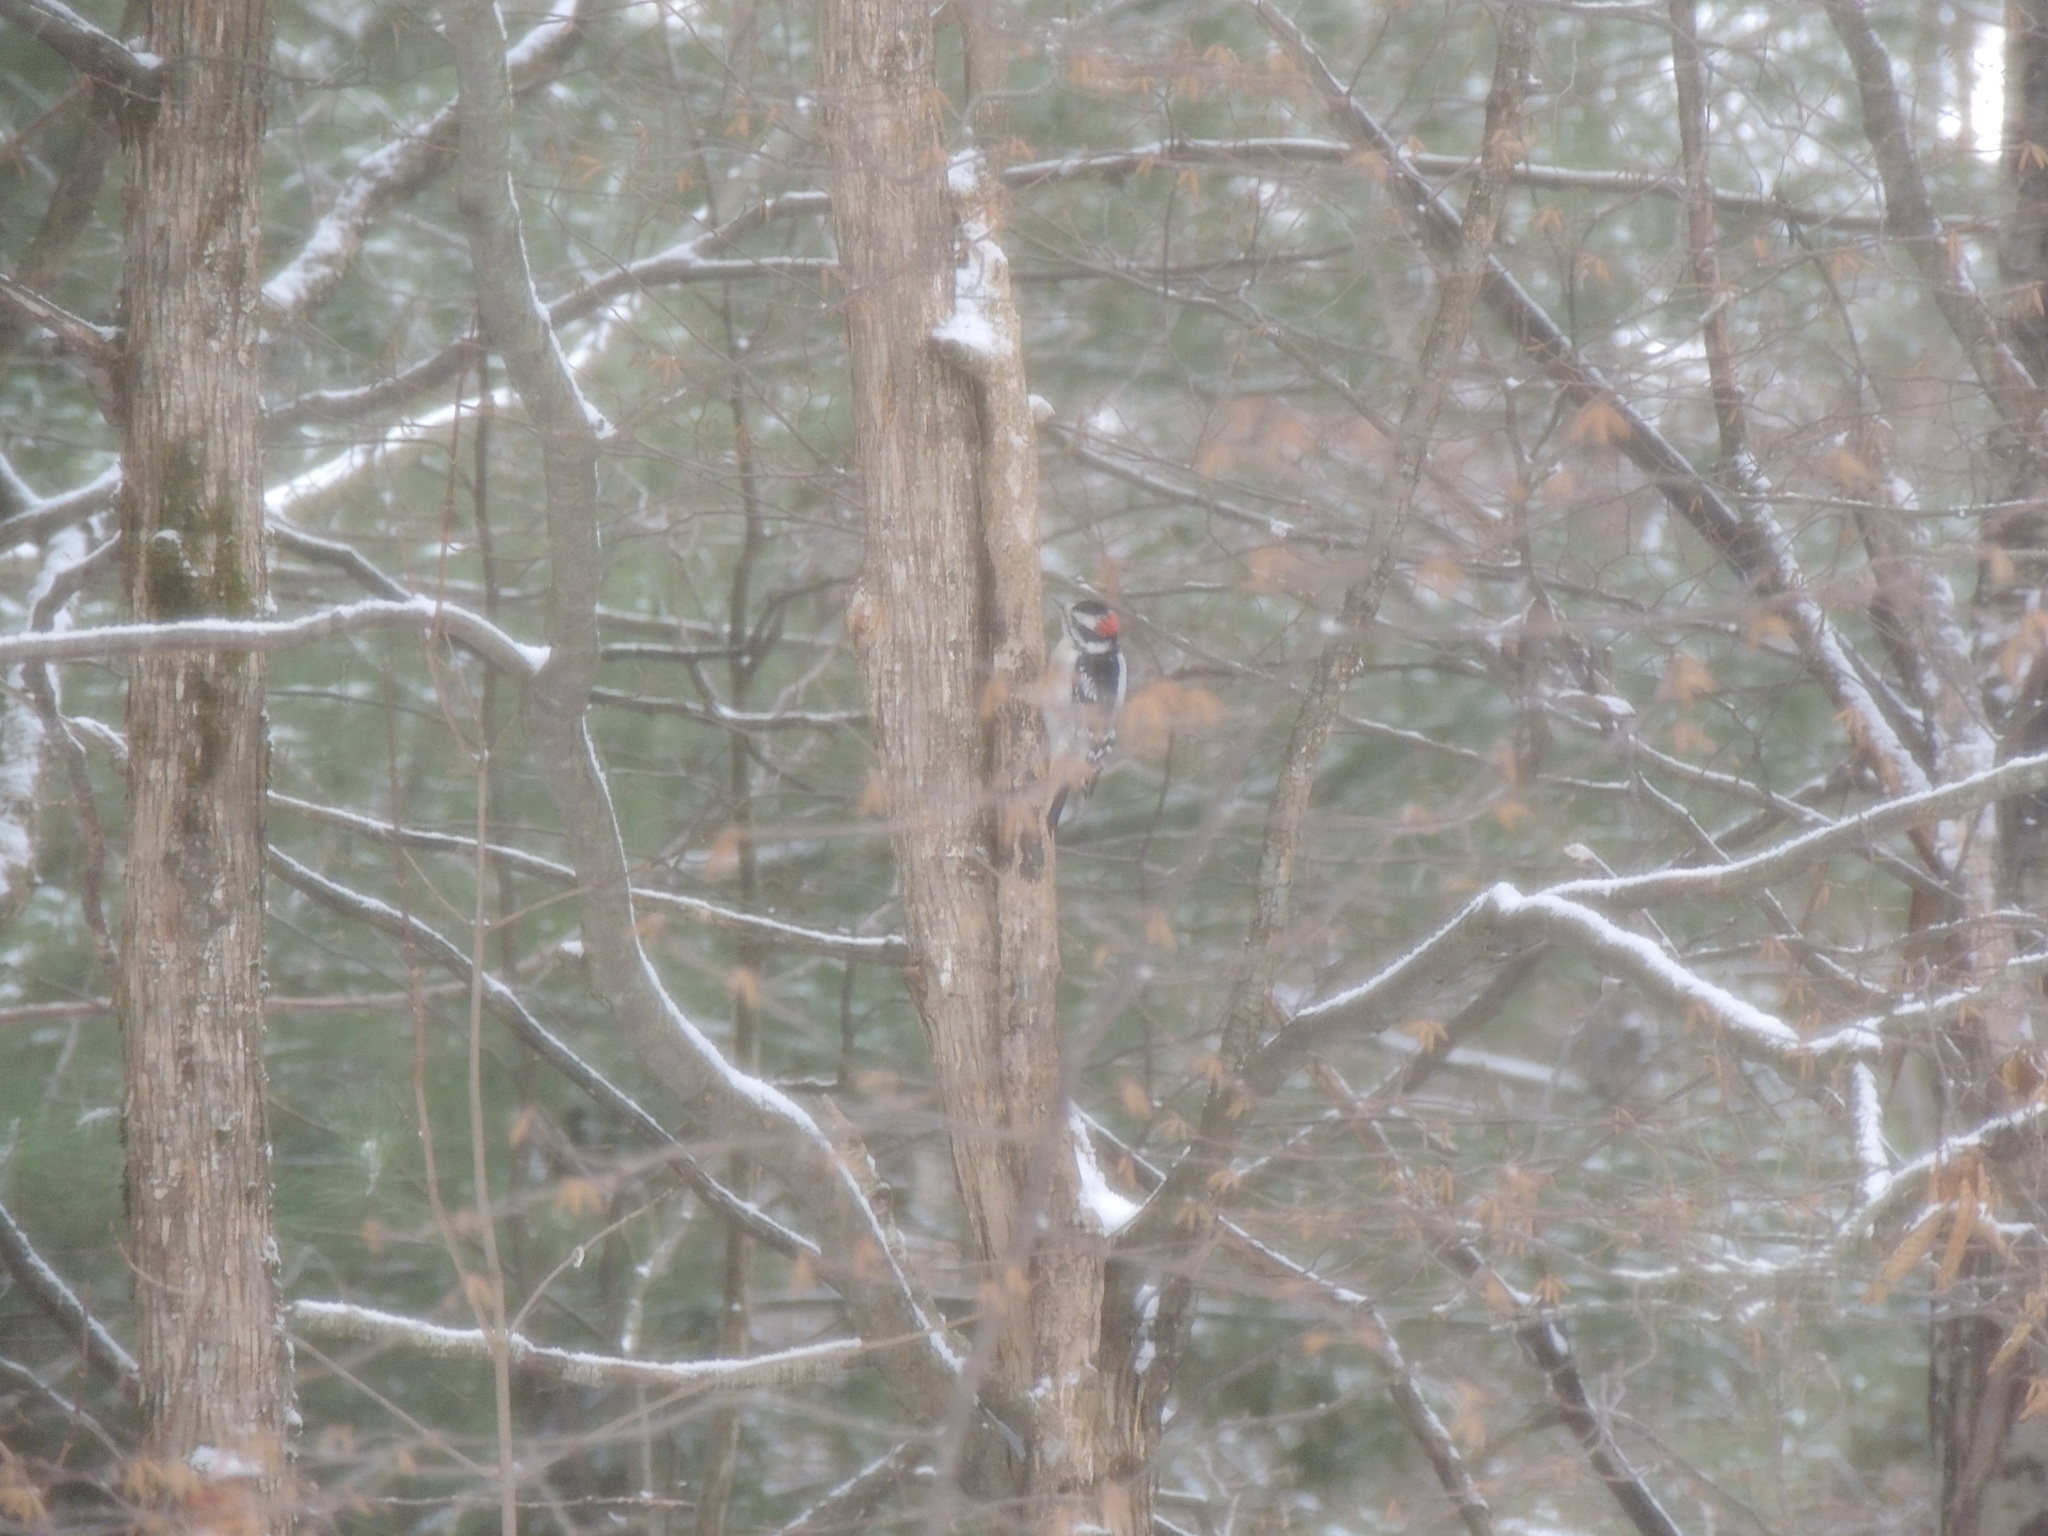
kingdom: Animalia
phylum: Chordata
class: Aves
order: Piciformes
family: Picidae
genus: Dryobates
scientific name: Dryobates pubescens
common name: Downy woodpecker
